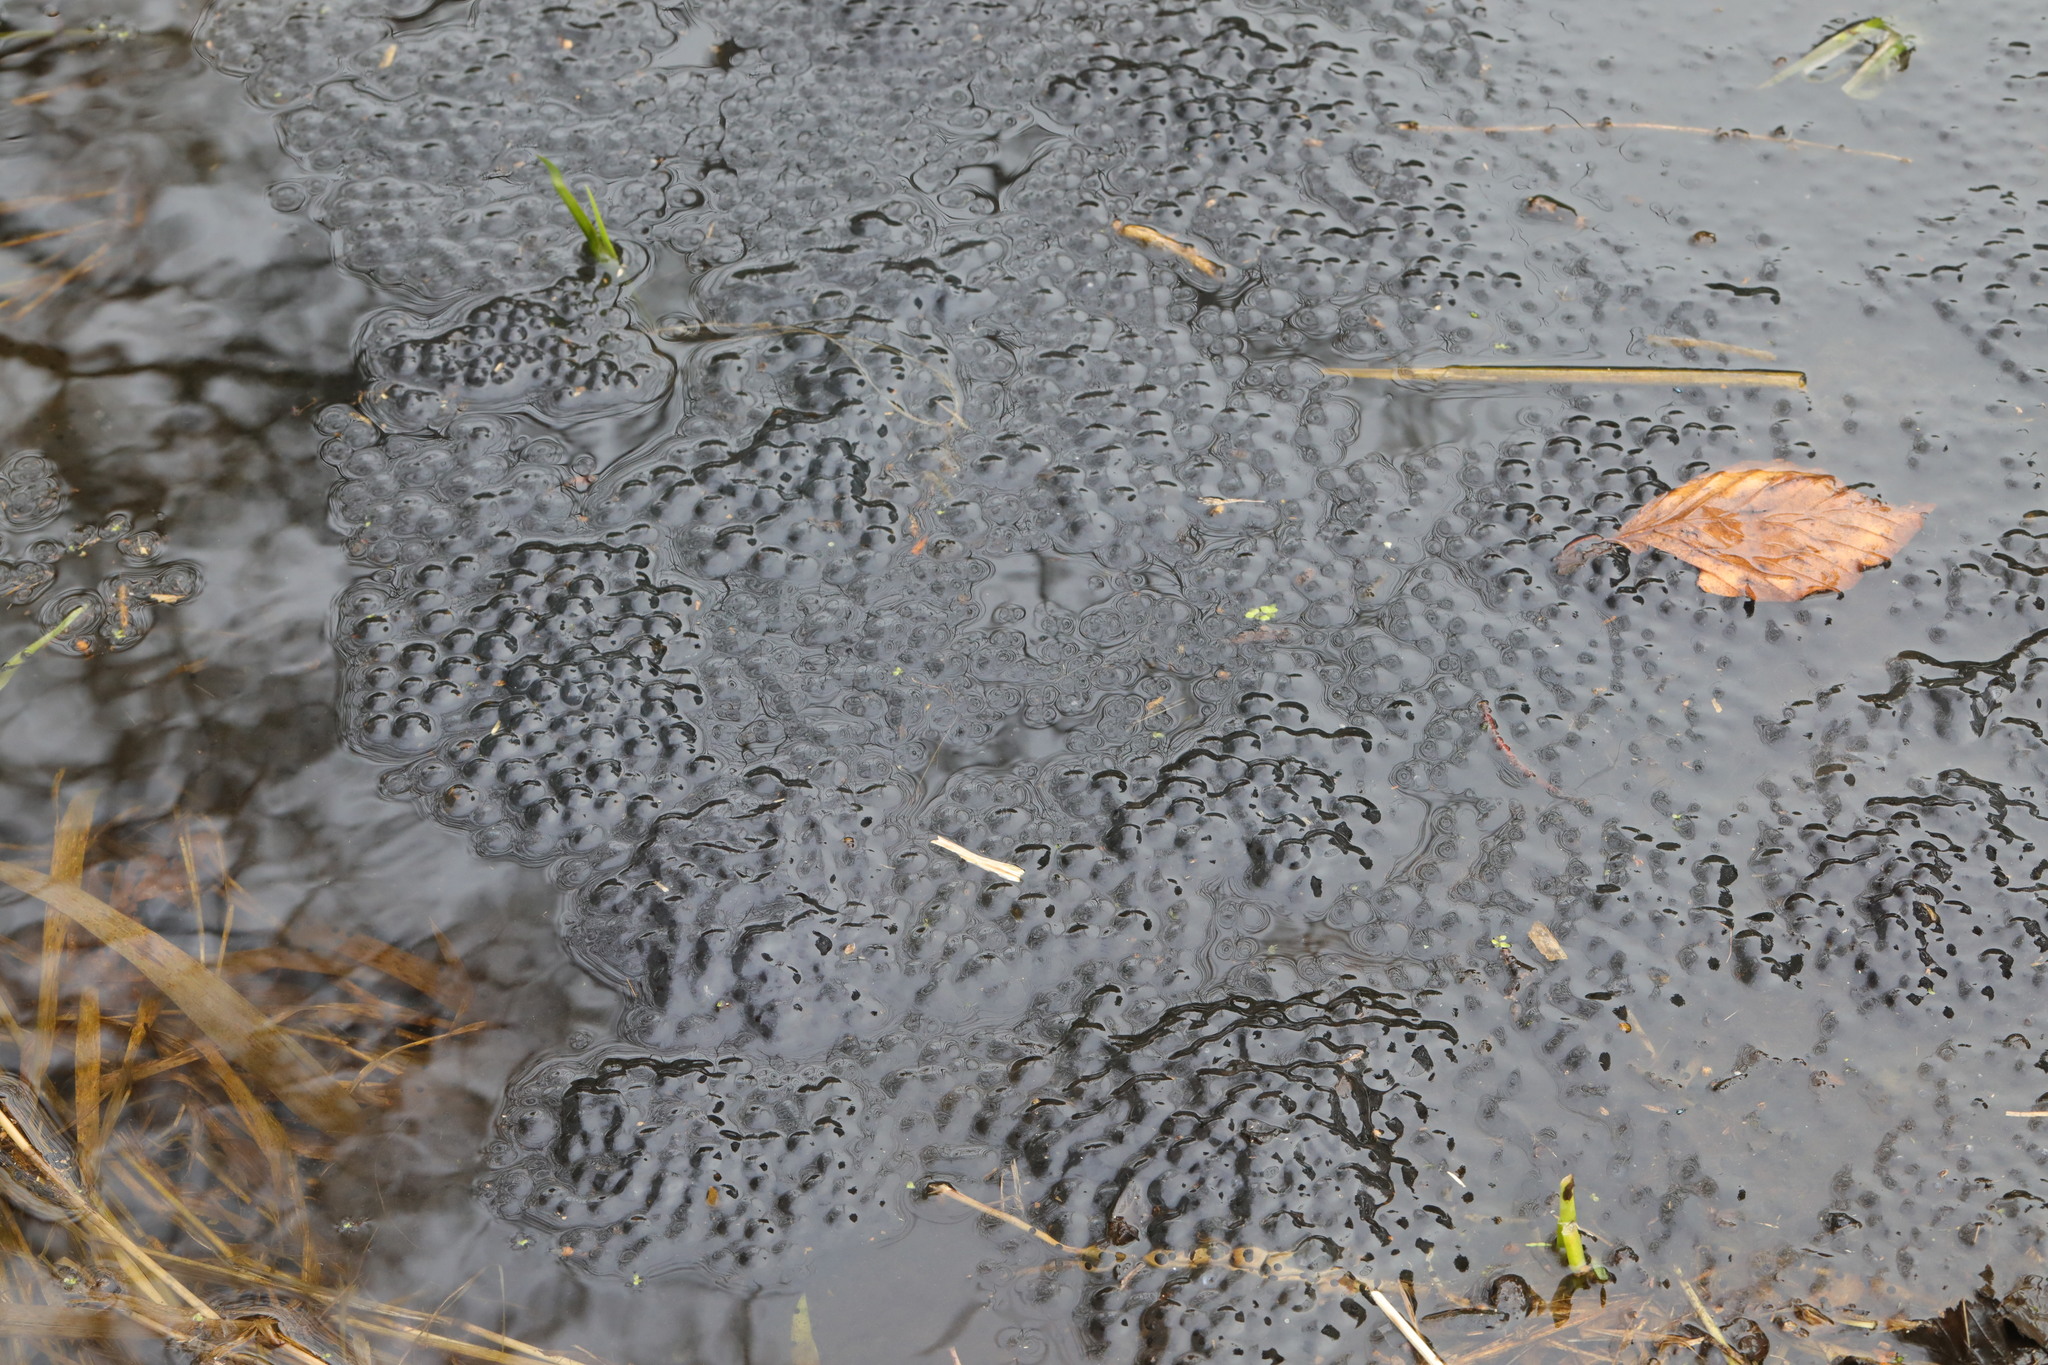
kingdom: Animalia
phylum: Chordata
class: Amphibia
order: Anura
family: Ranidae
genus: Rana
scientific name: Rana temporaria
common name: Common frog
